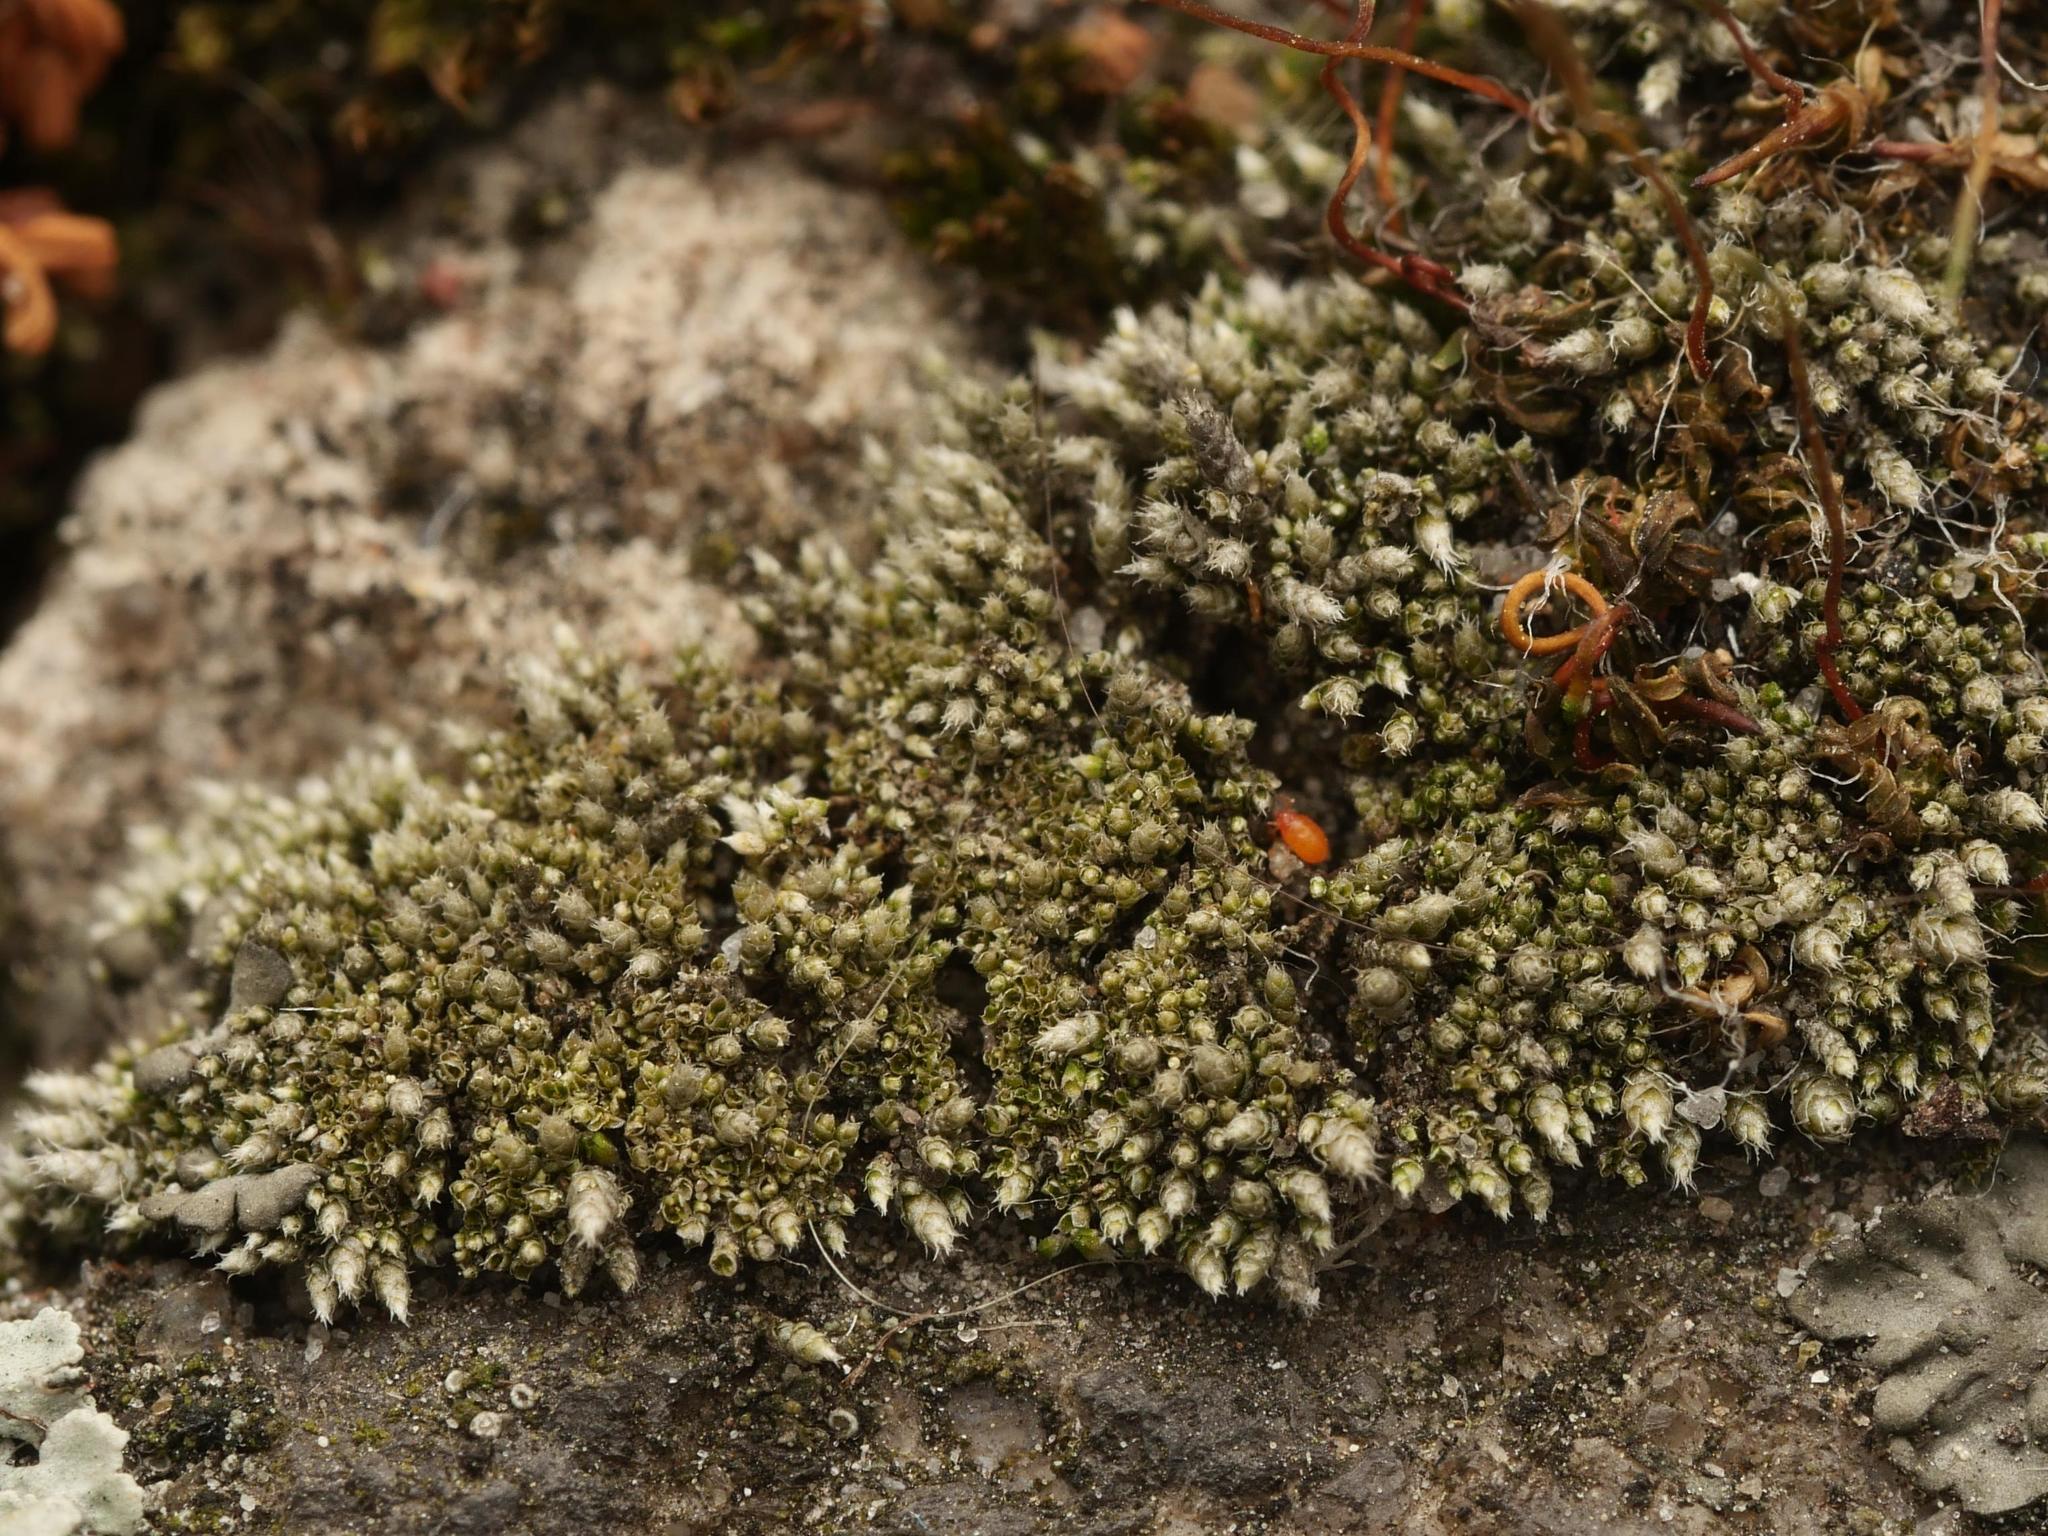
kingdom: Plantae
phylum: Bryophyta
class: Bryopsida
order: Bryales
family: Bryaceae
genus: Bryum
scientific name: Bryum argenteum
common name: Silver-moss
